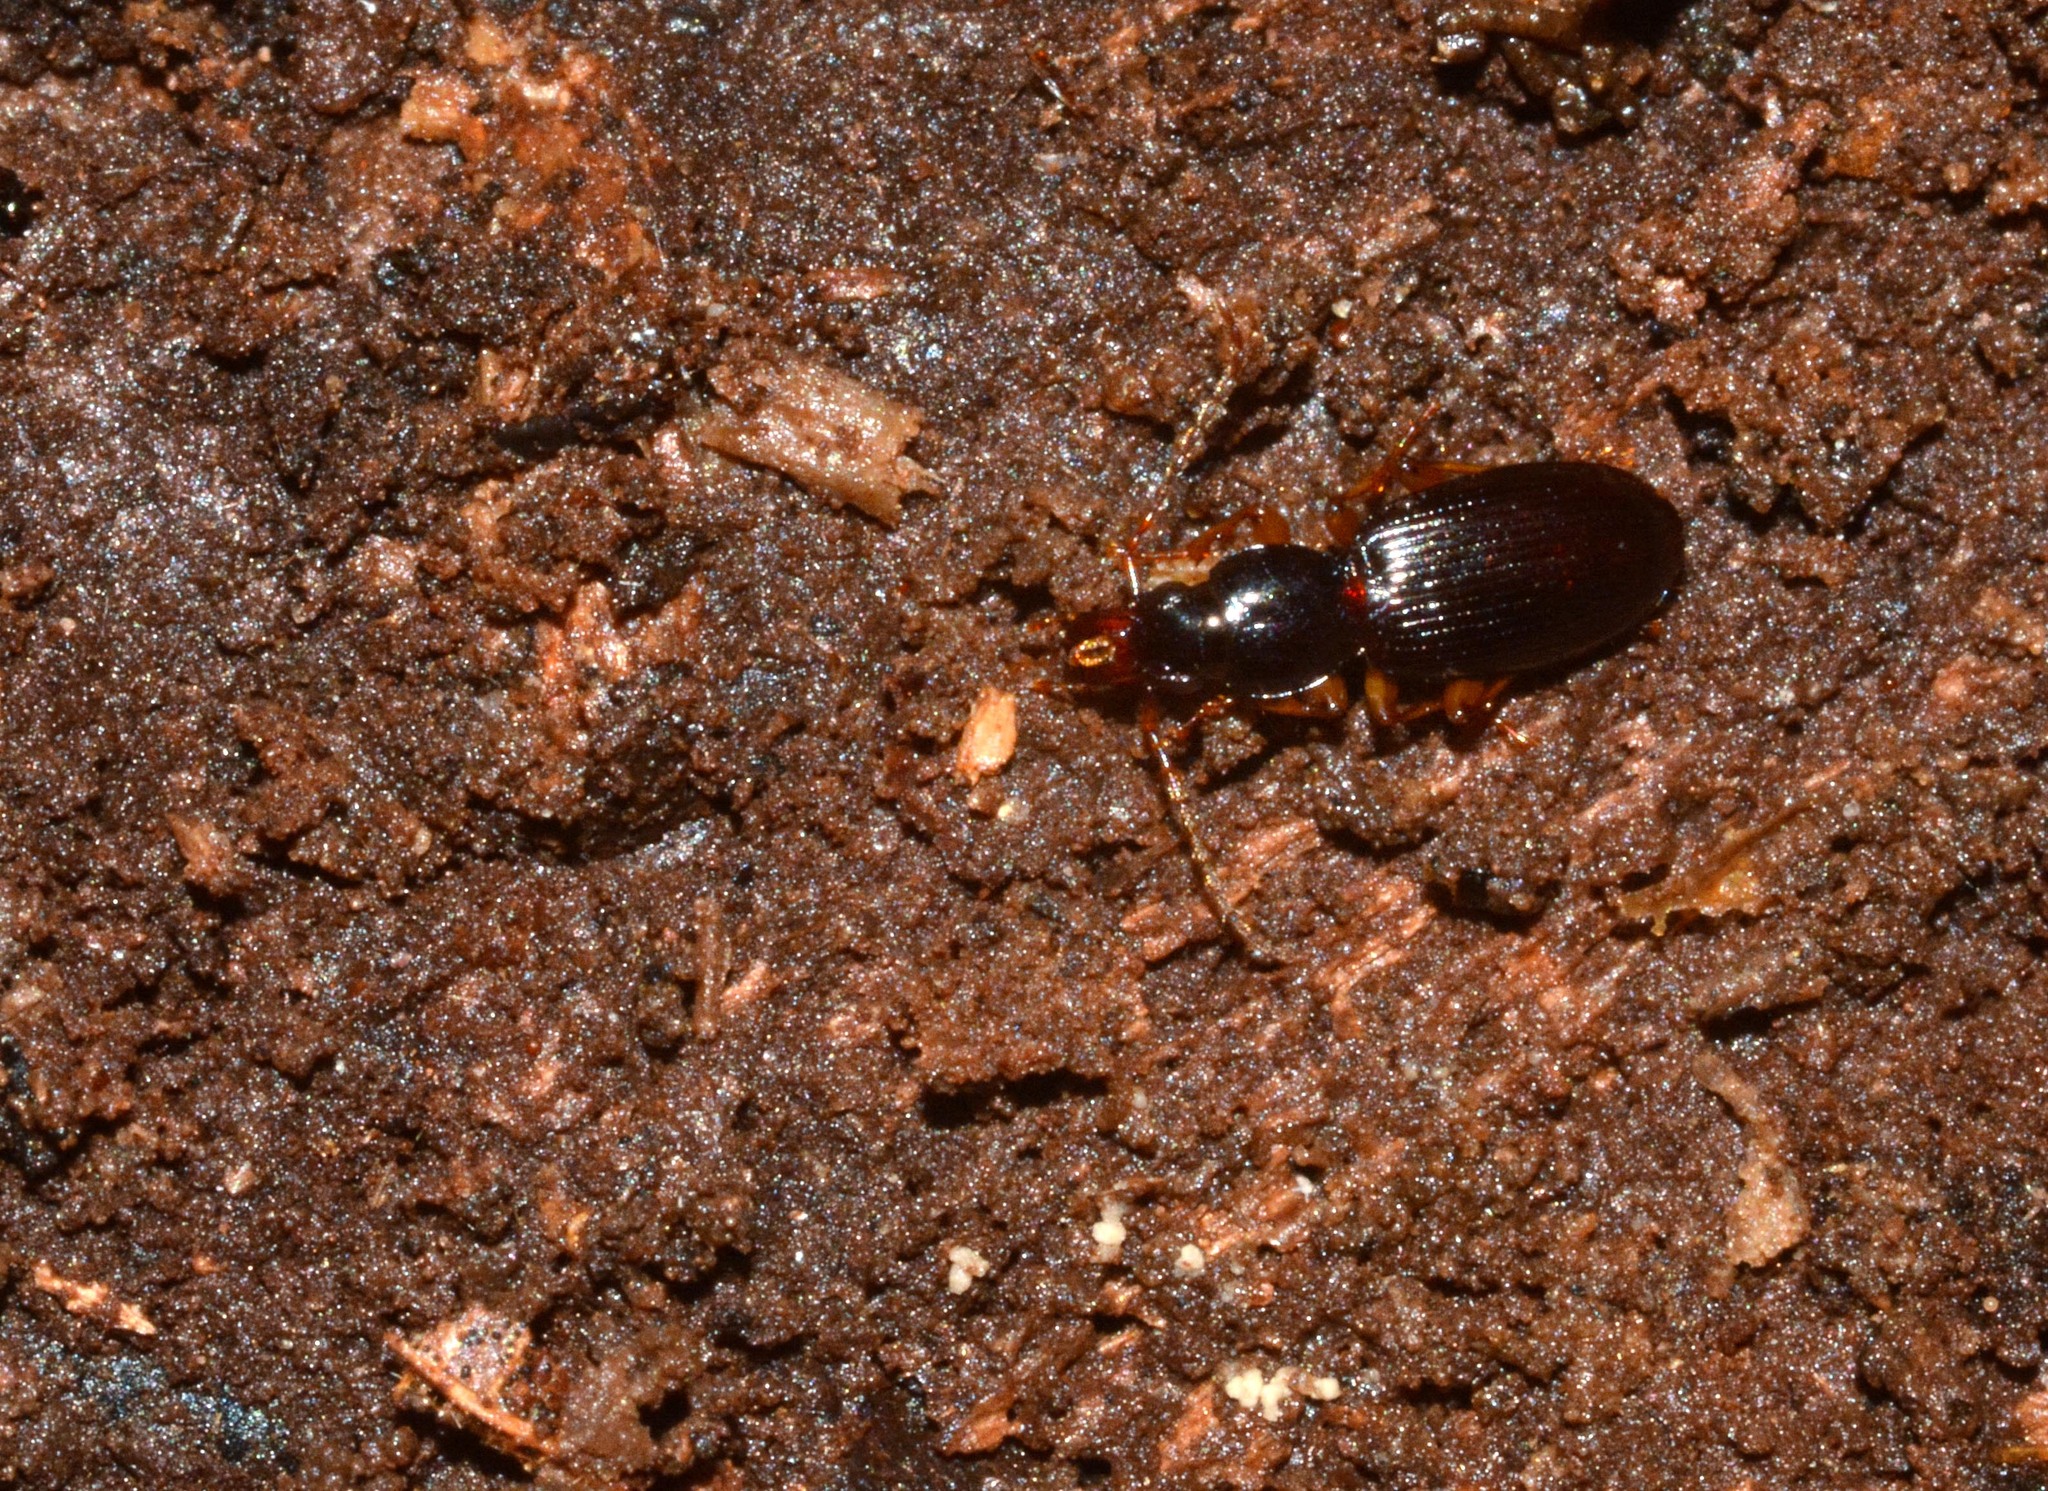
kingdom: Animalia
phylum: Arthropoda
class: Insecta
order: Coleoptera
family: Carabidae
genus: Stomis
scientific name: Stomis pumicatus
